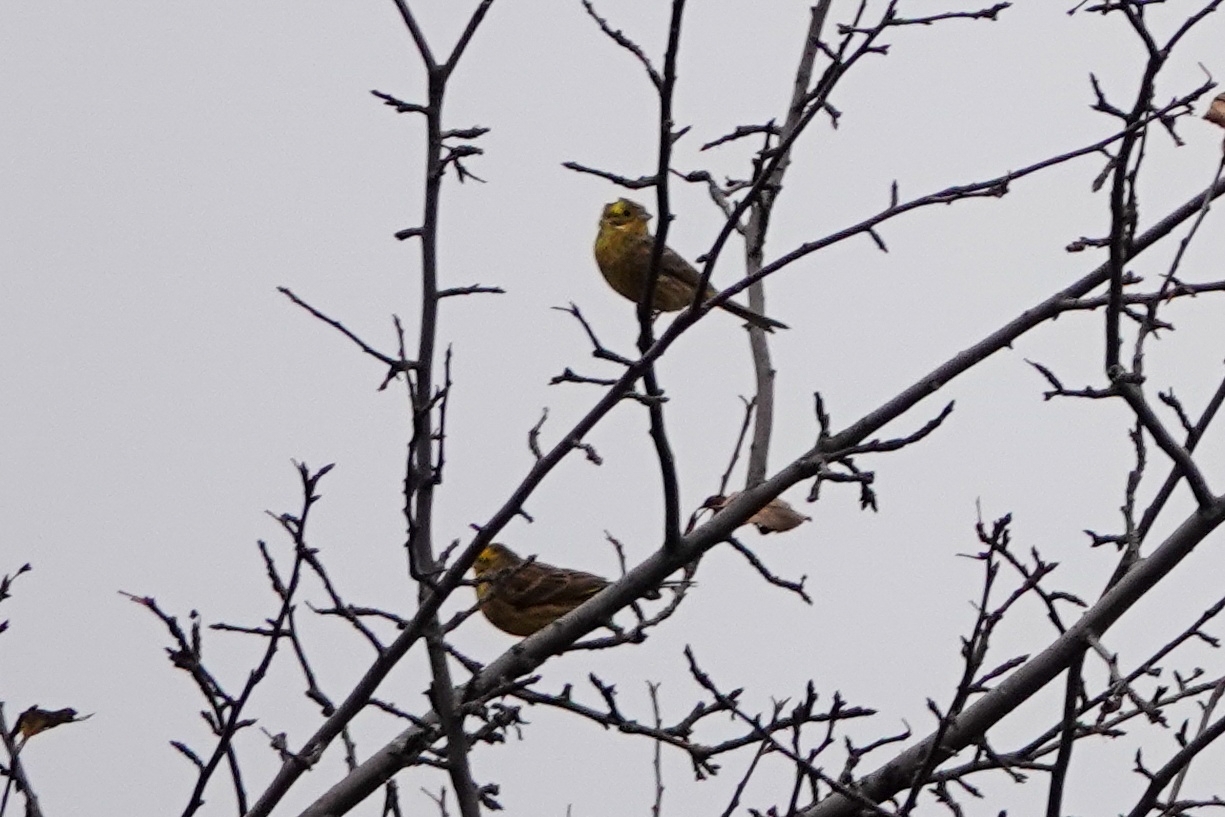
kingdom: Animalia
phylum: Chordata
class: Aves
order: Passeriformes
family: Emberizidae
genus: Emberiza
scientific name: Emberiza citrinella
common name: Yellowhammer
